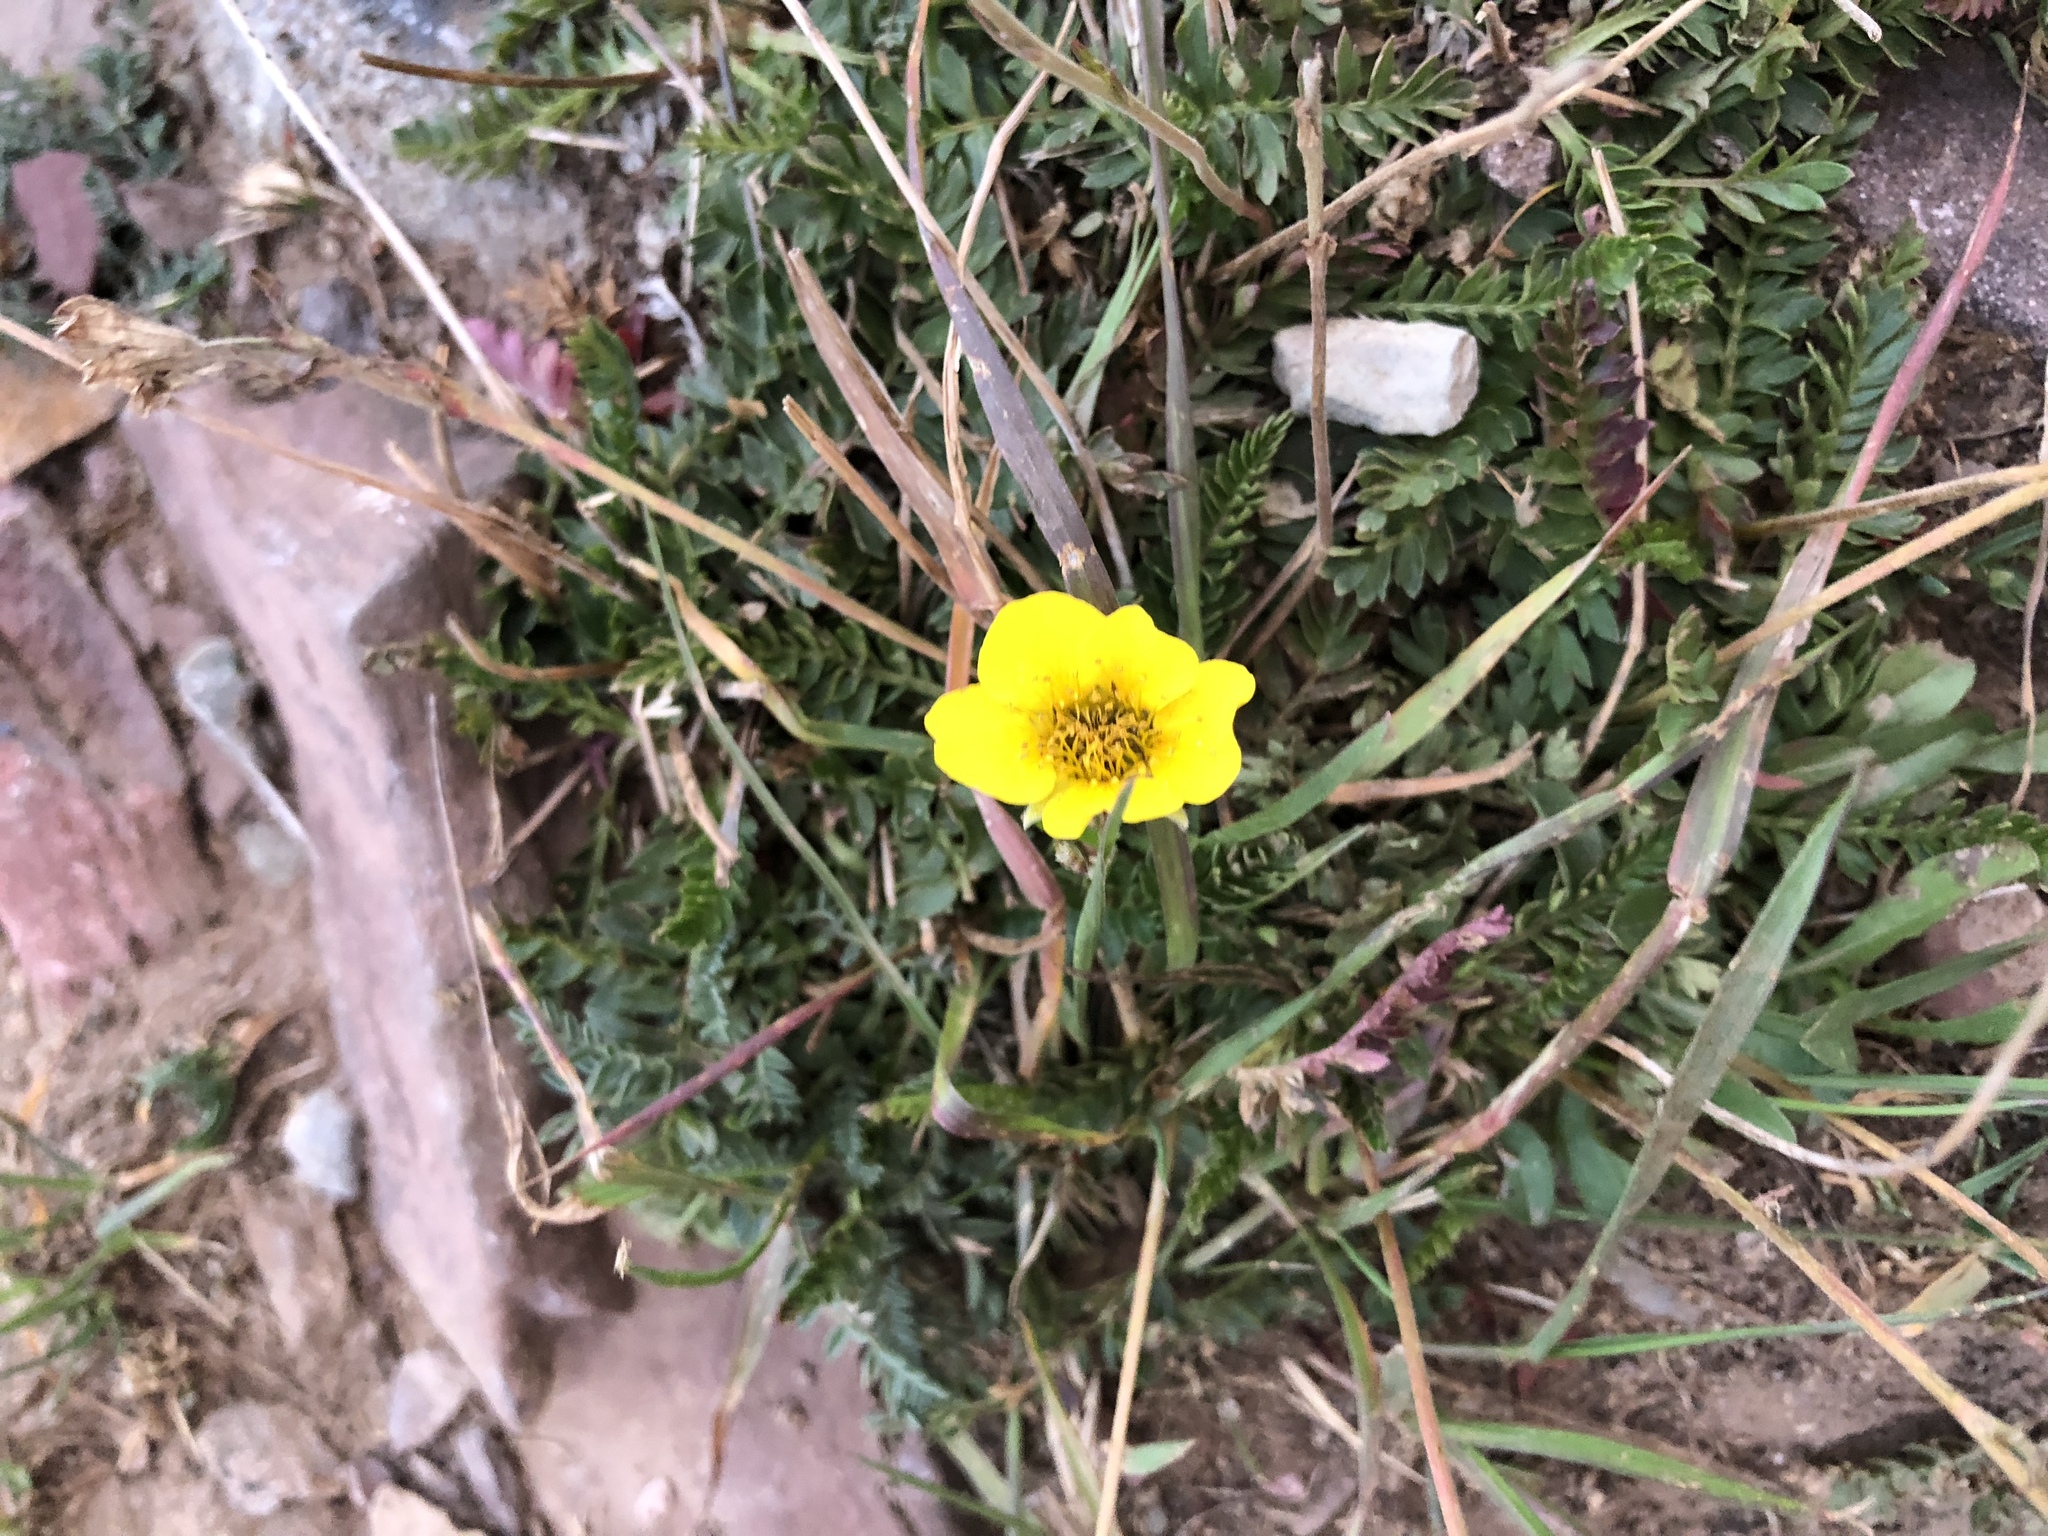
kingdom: Plantae
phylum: Tracheophyta
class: Magnoliopsida
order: Rosales
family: Rosaceae
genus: Geum
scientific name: Geum rossii
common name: Alpine avens
